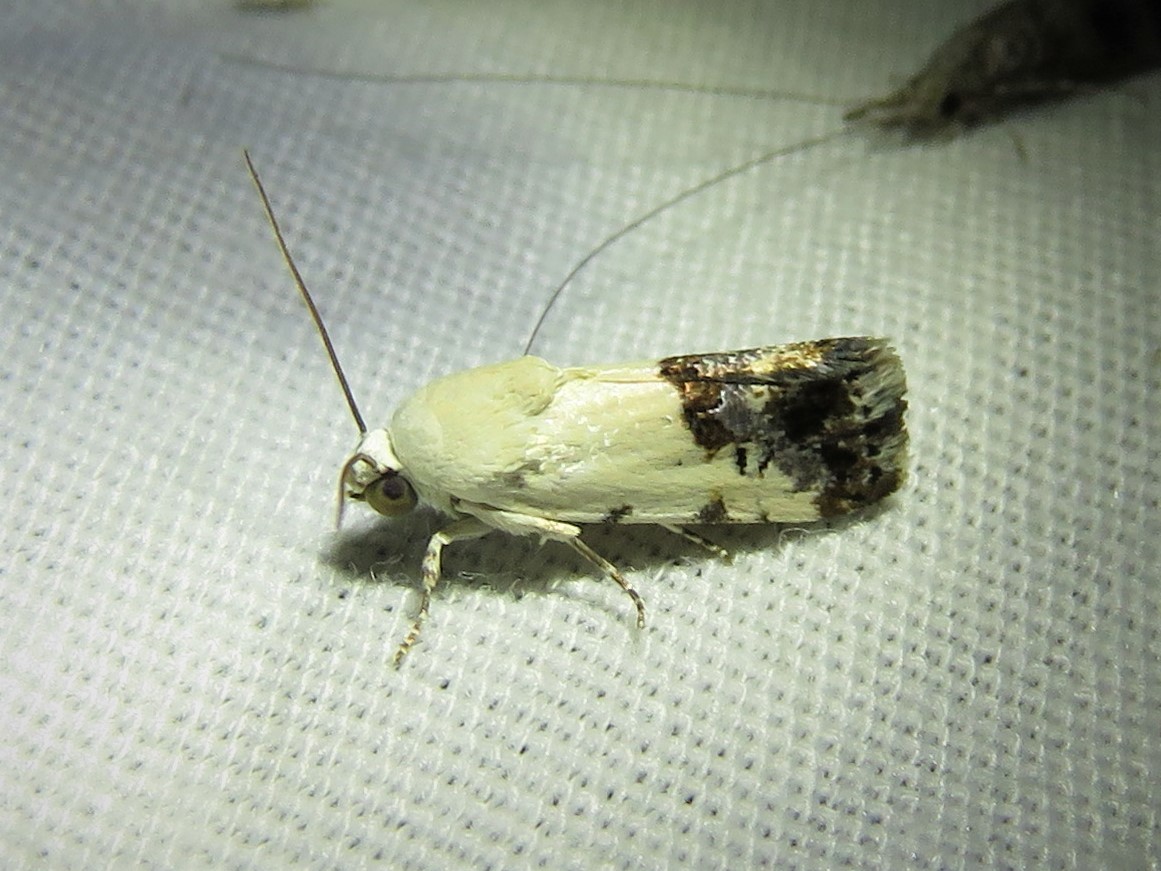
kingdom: Animalia
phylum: Arthropoda
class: Insecta
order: Lepidoptera
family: Noctuidae
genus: Acontia
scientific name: Acontia phecolisca
